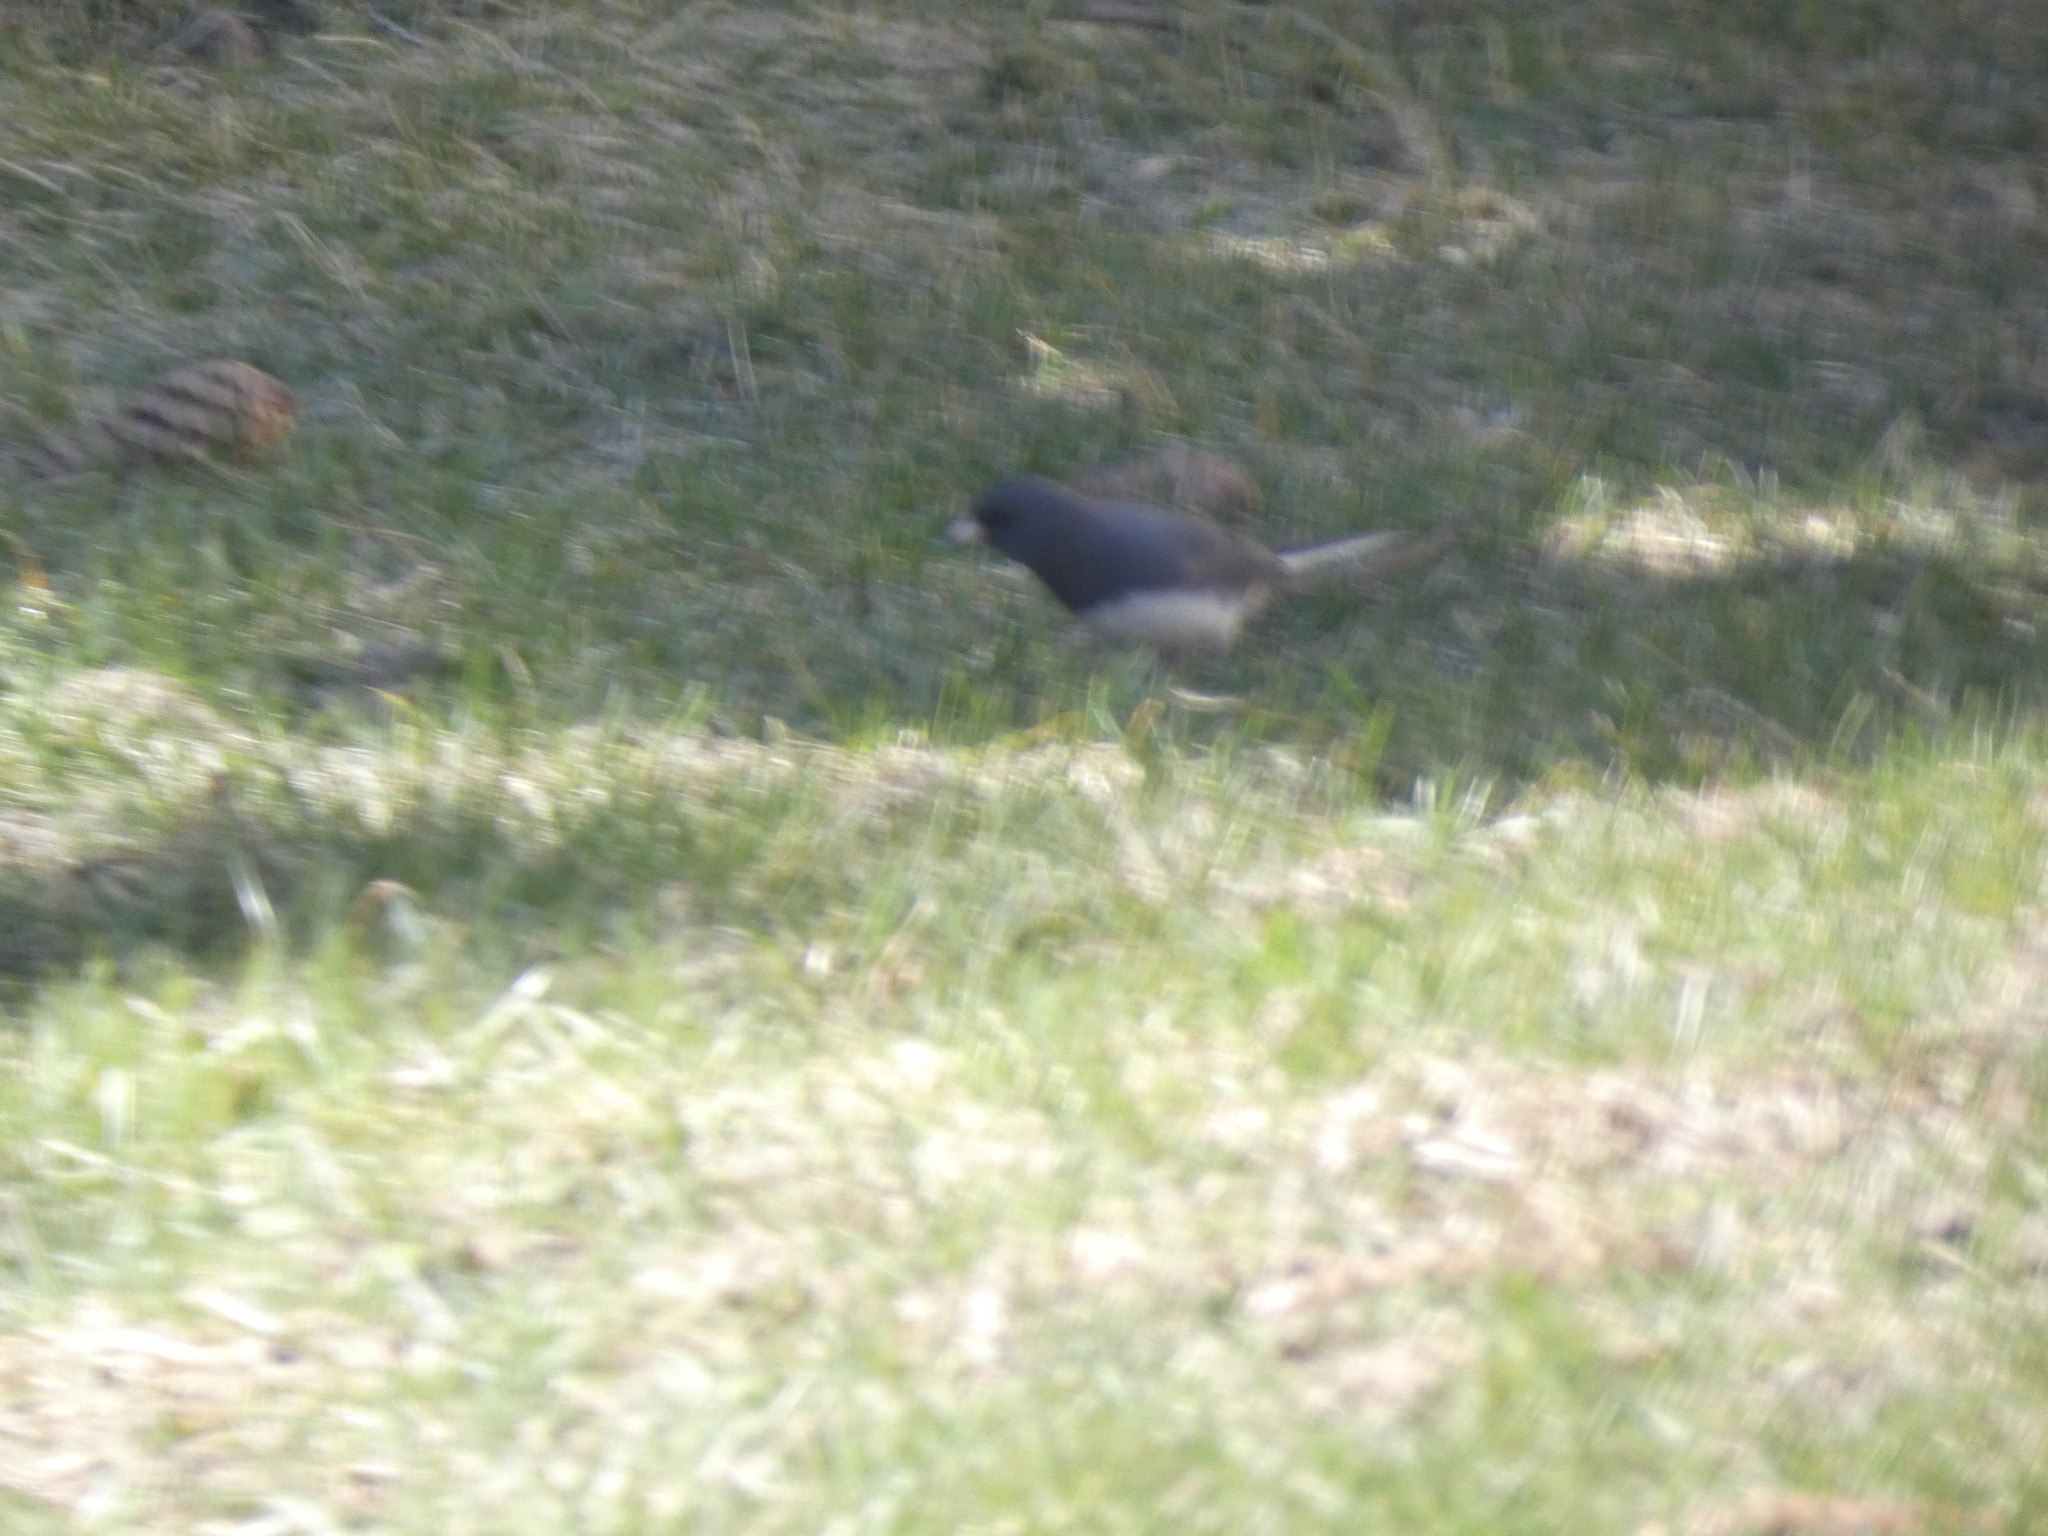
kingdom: Animalia
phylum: Chordata
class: Aves
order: Passeriformes
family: Passerellidae
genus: Junco
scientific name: Junco hyemalis
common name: Dark-eyed junco
